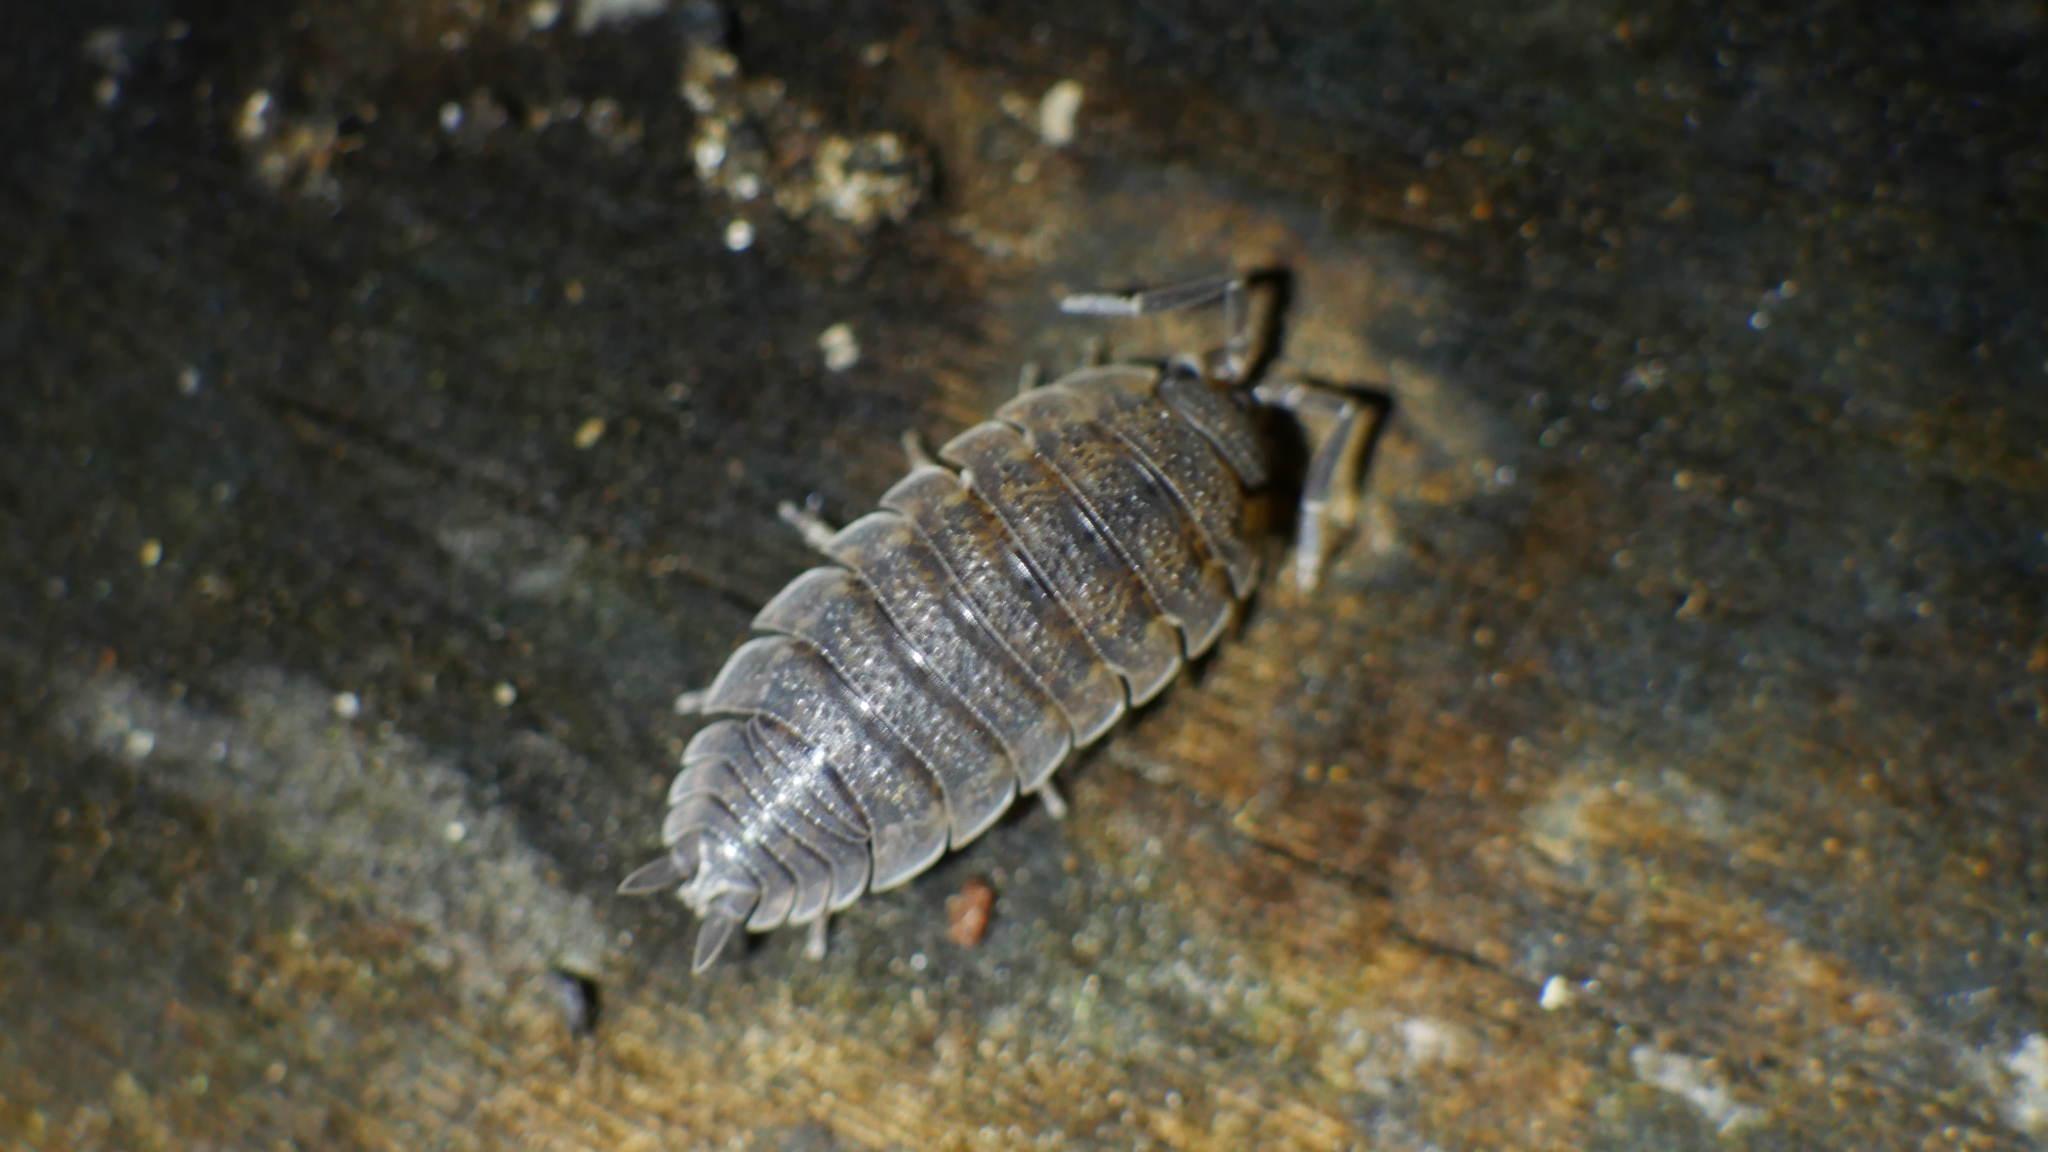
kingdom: Animalia
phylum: Arthropoda
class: Malacostraca
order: Isopoda
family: Porcellionidae
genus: Porcellio
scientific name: Porcellio scaber
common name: Common rough woodlouse
